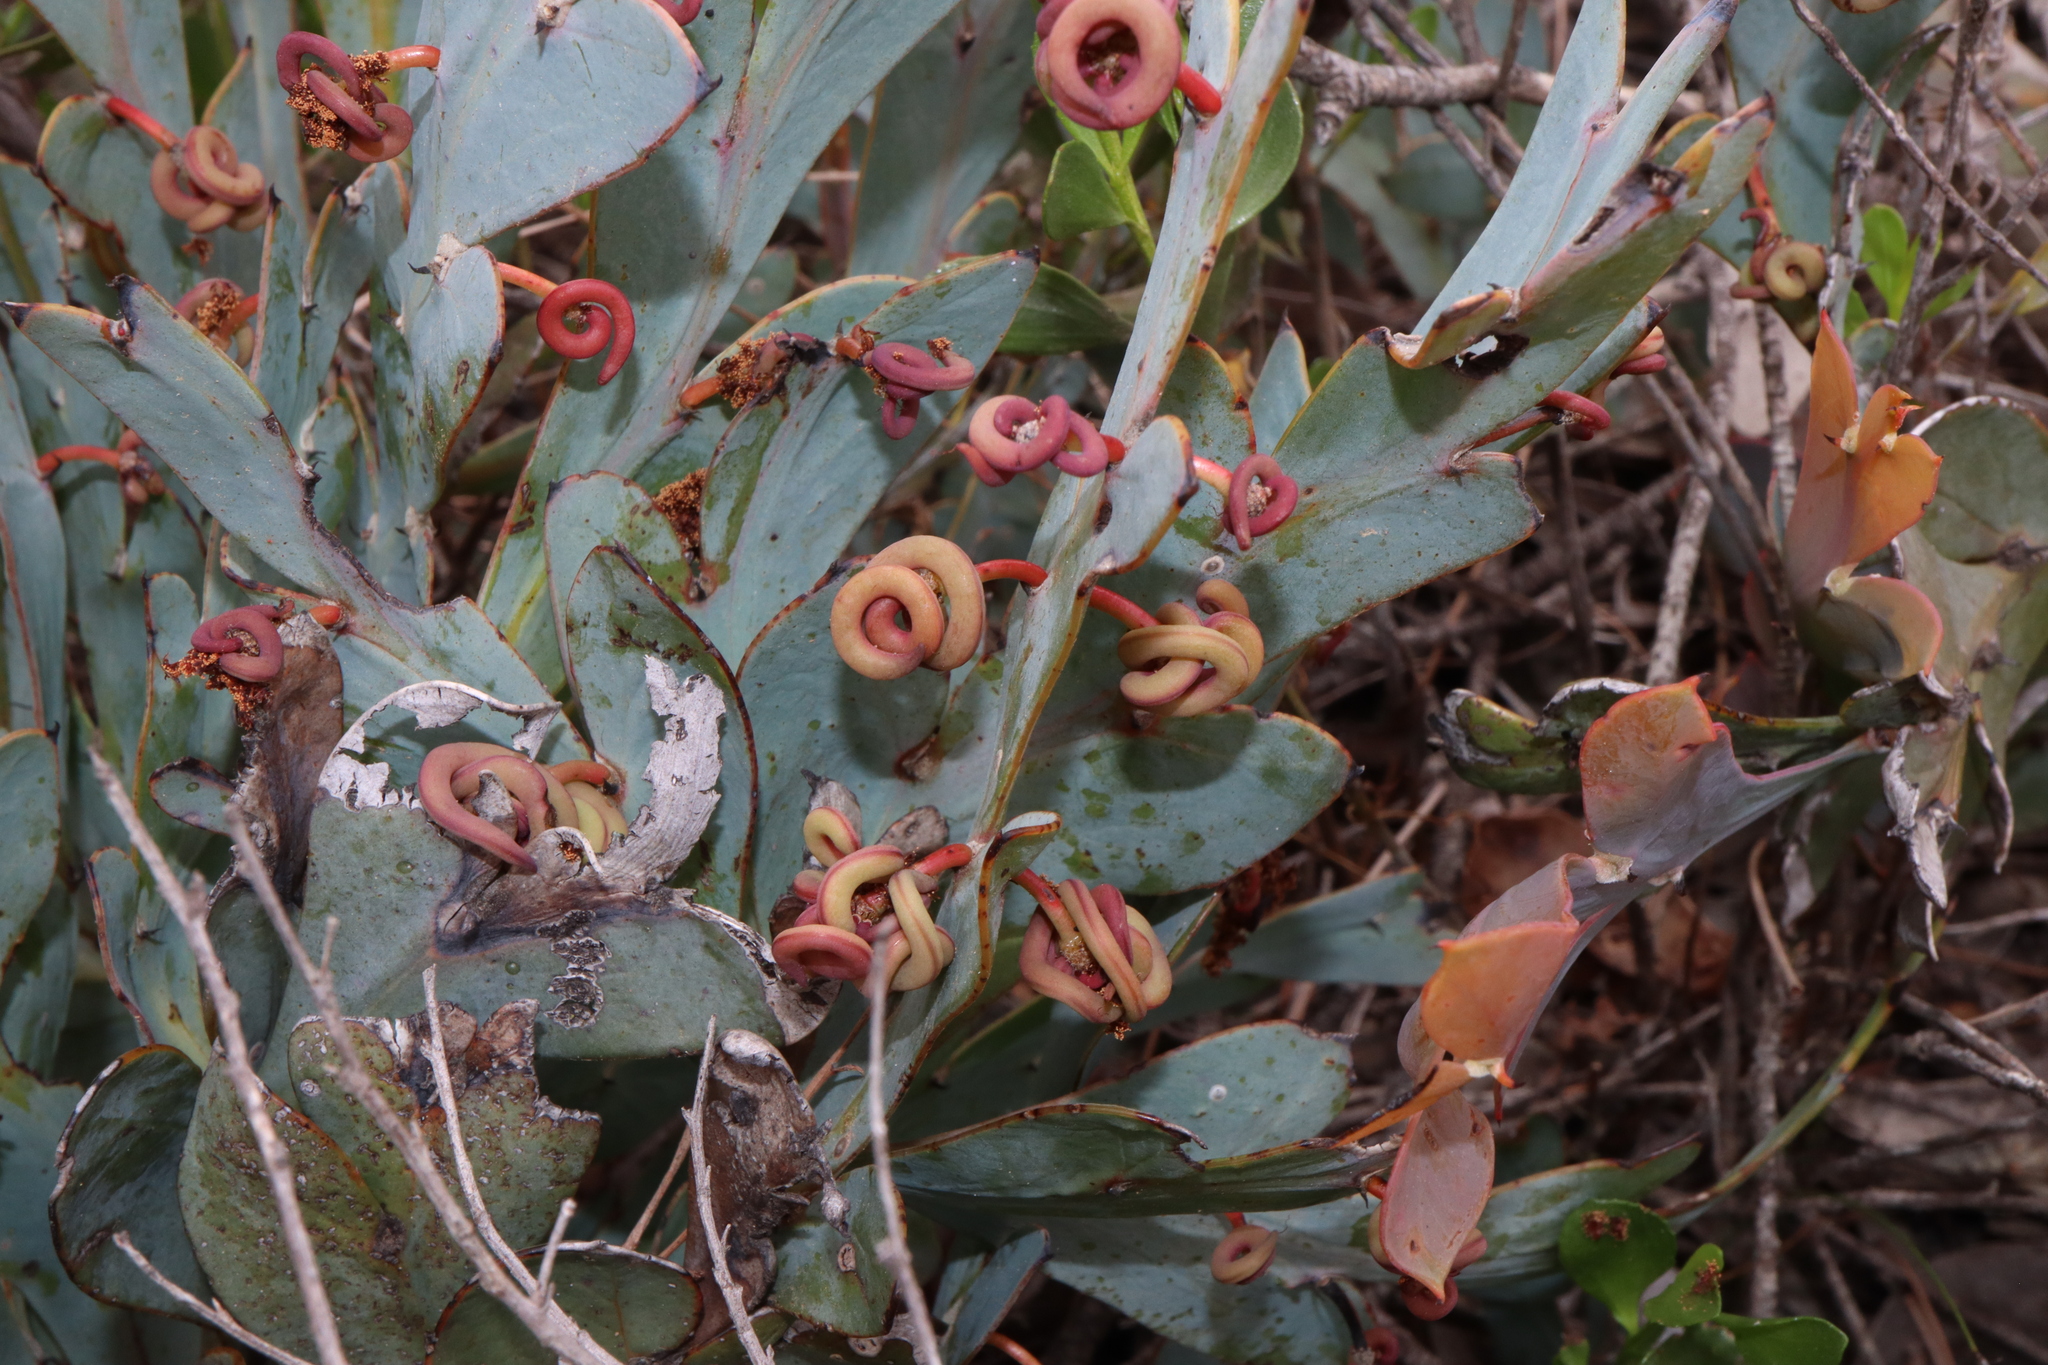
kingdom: Plantae
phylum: Tracheophyta
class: Magnoliopsida
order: Fabales
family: Fabaceae
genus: Acacia
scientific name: Acacia glaucoptera
